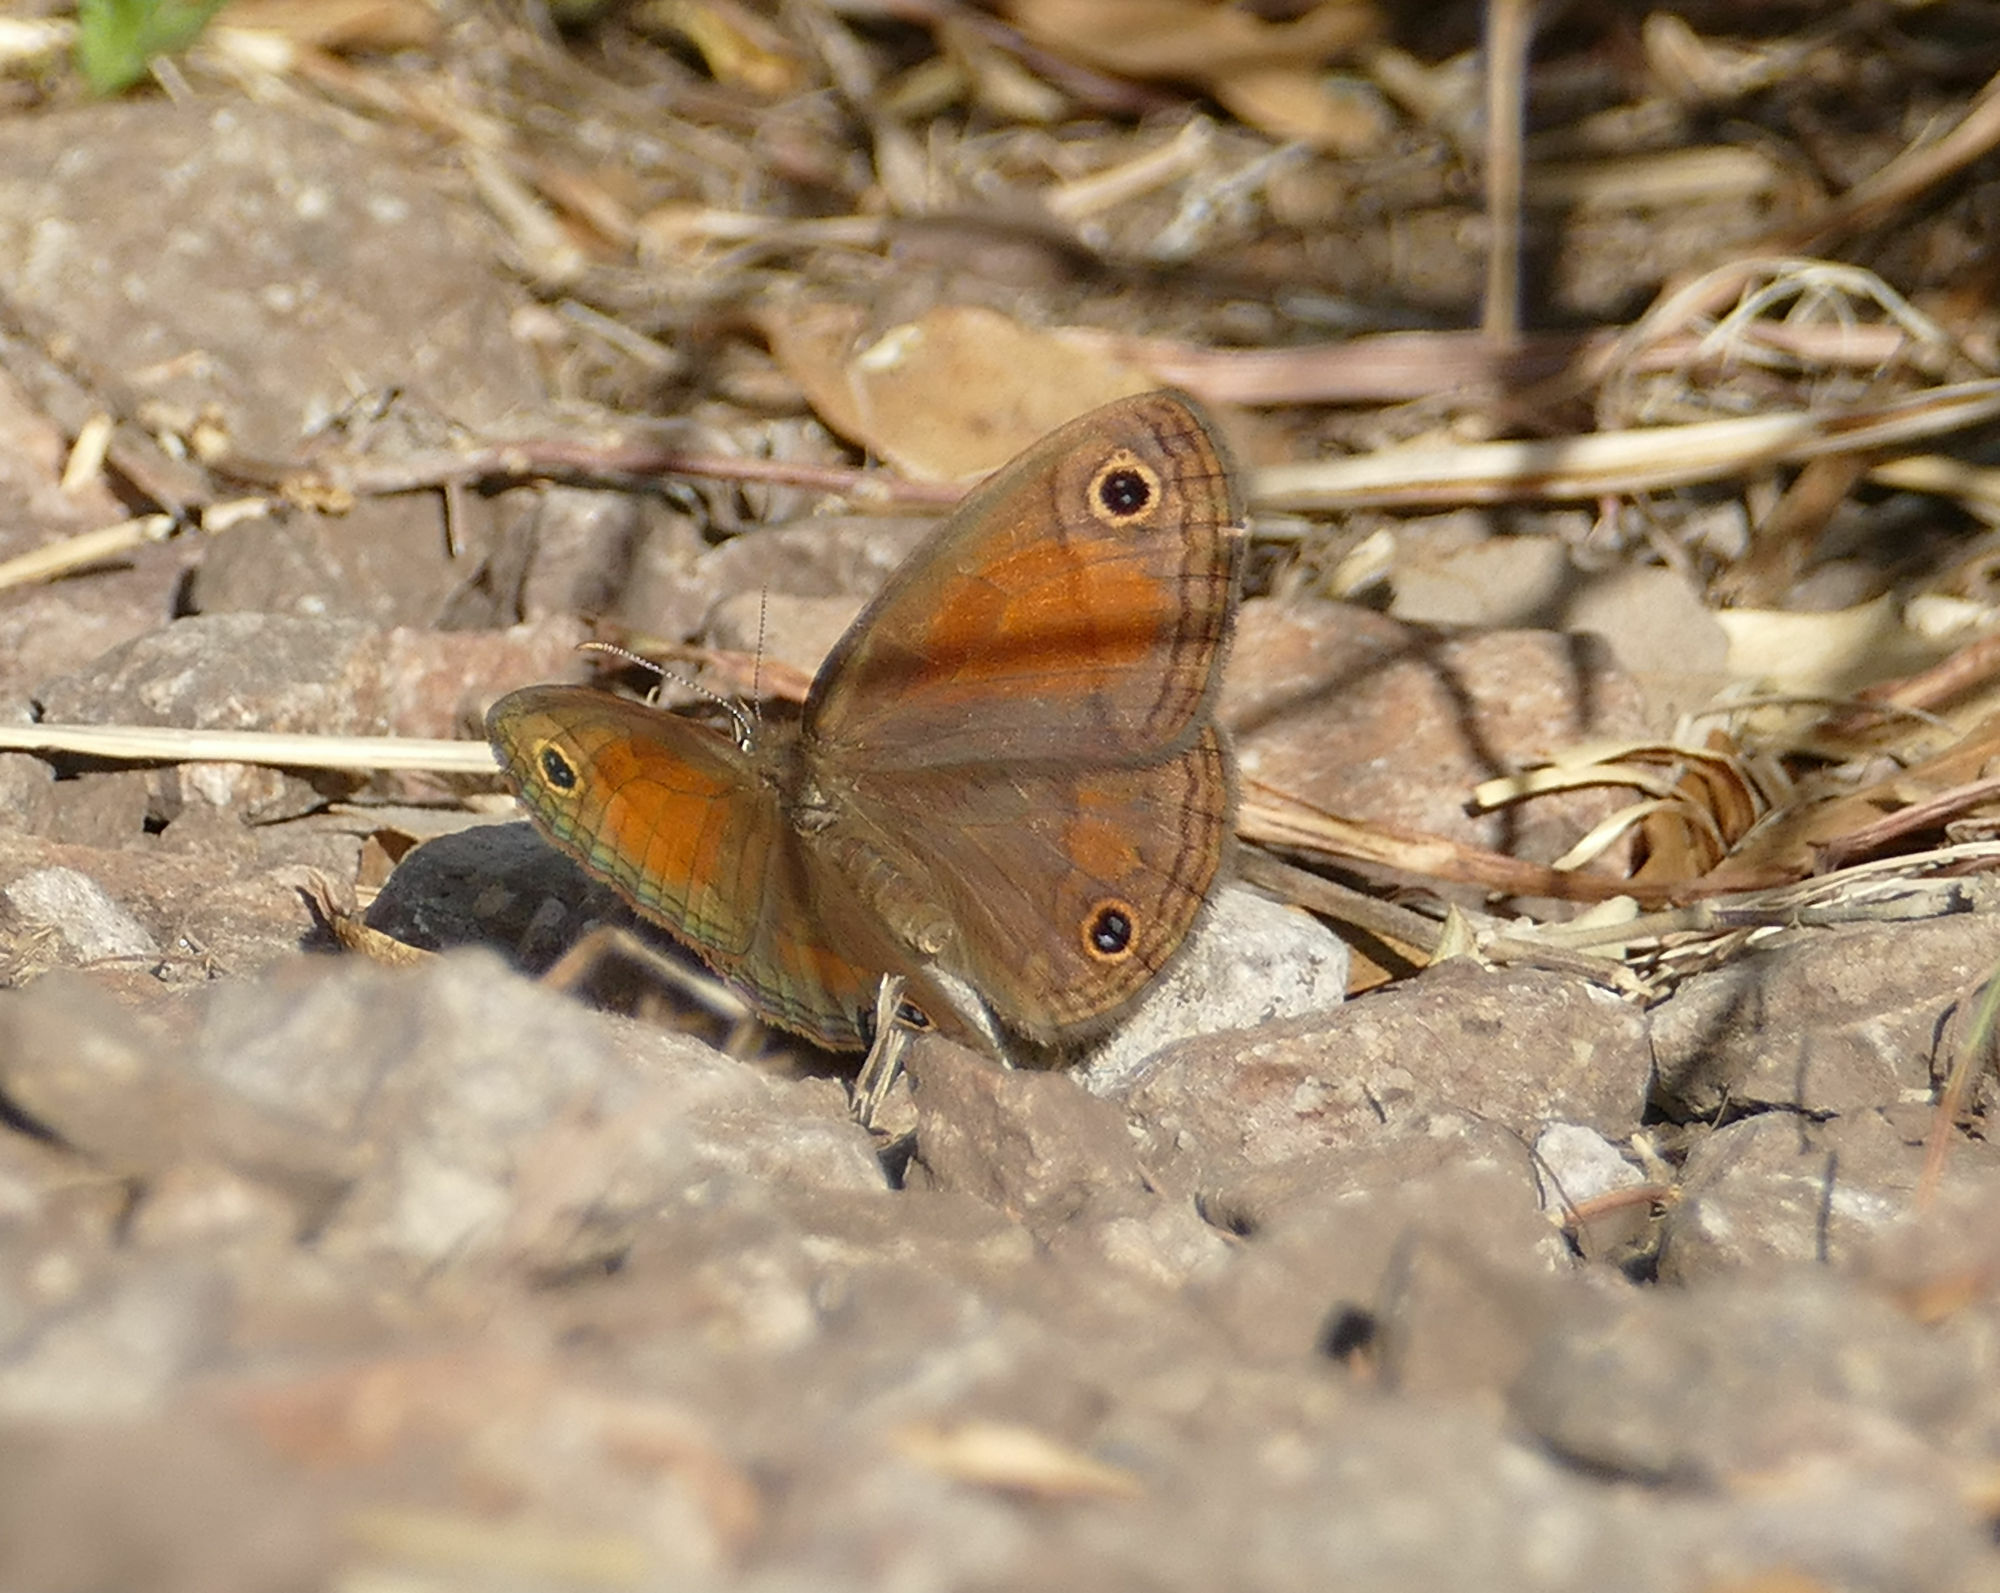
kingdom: Animalia
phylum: Arthropoda
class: Insecta
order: Lepidoptera
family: Nymphalidae
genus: Euptychia
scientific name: Euptychia Cissia rubricata
